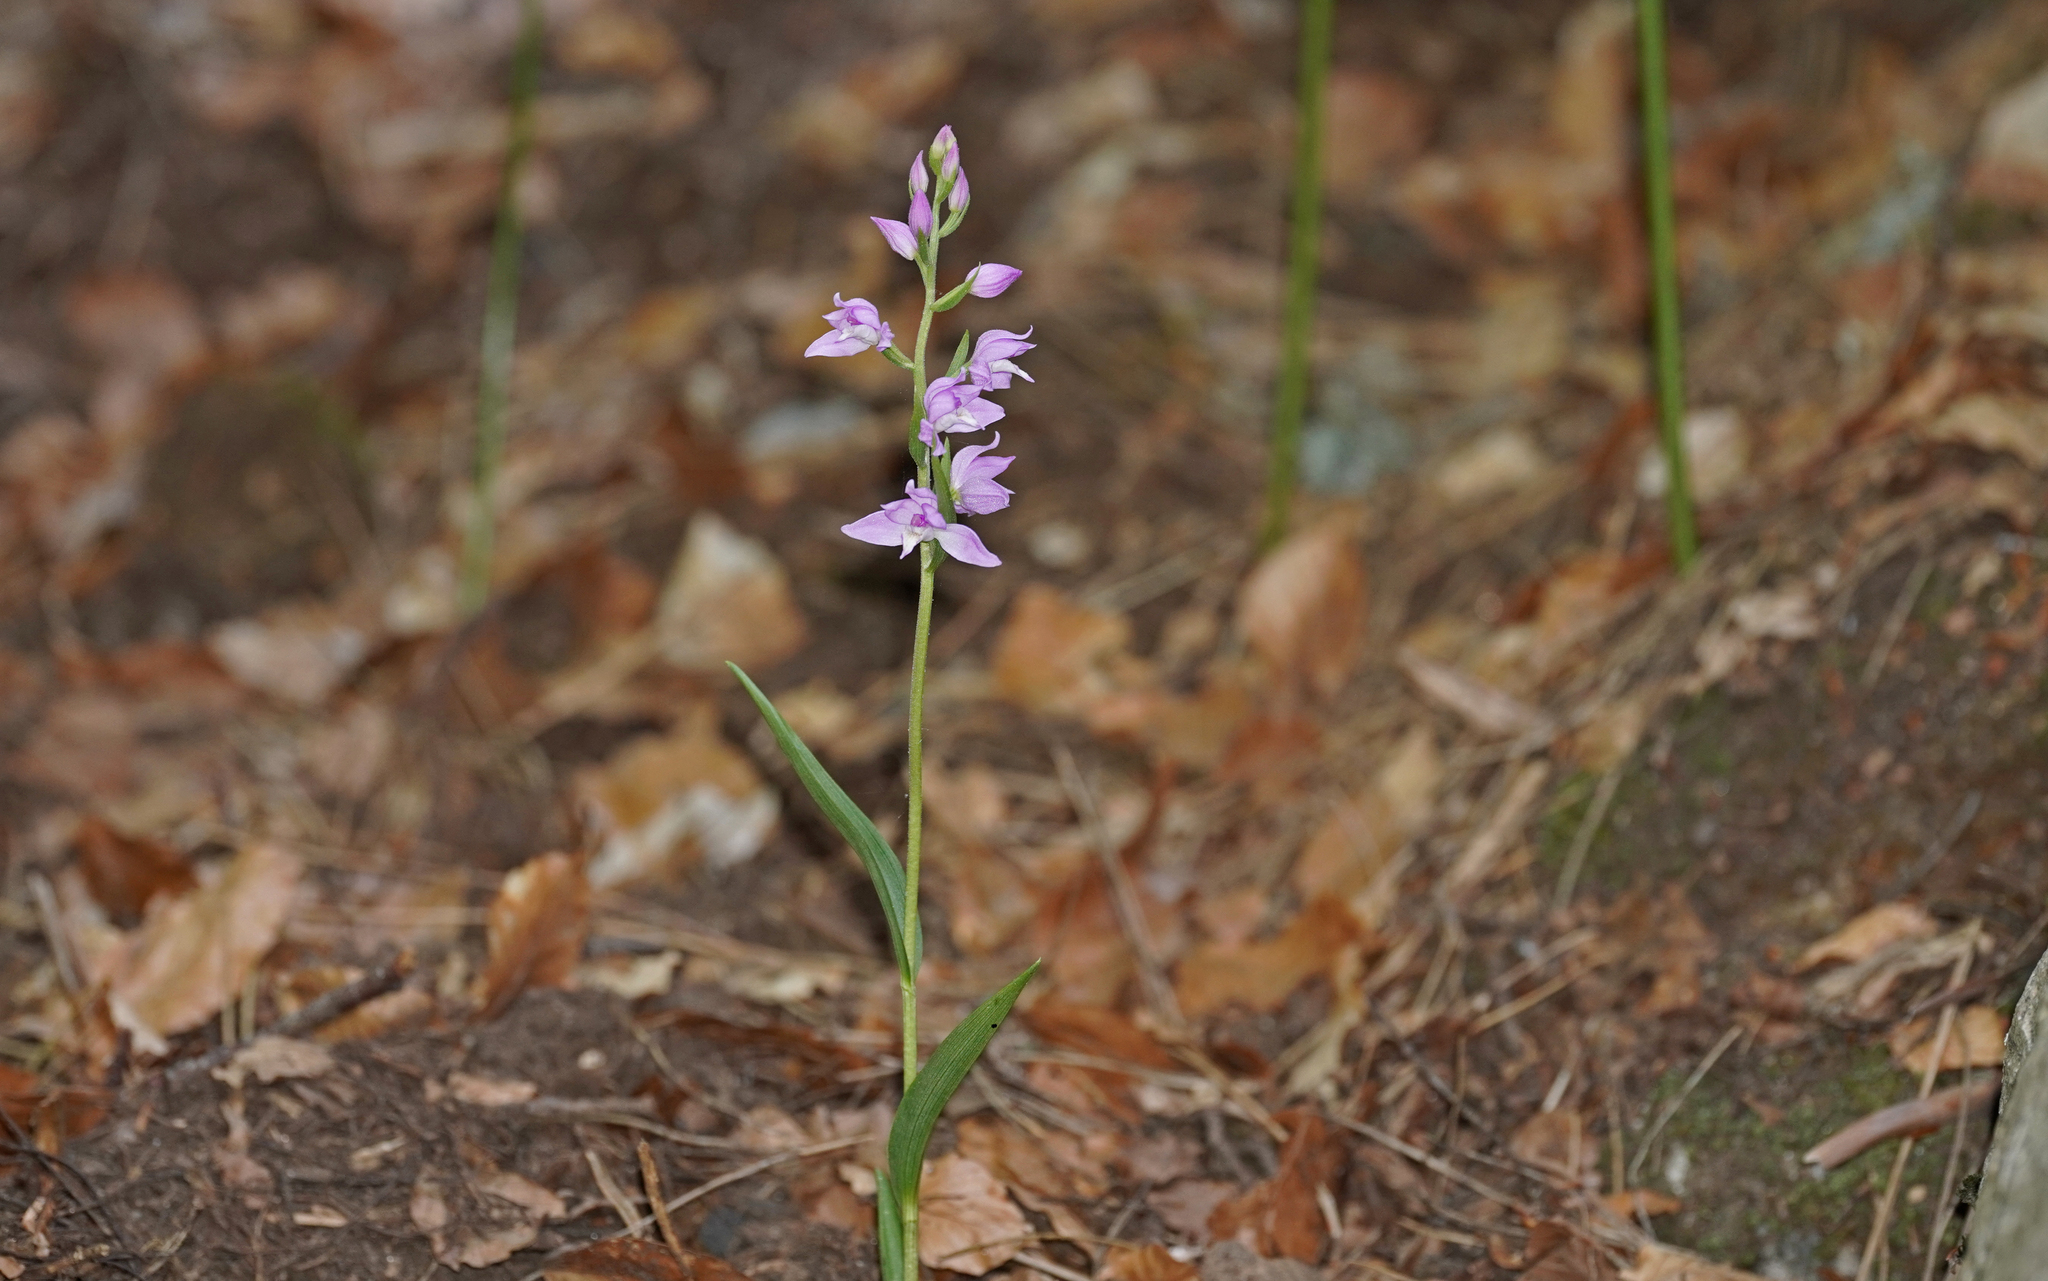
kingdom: Plantae
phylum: Tracheophyta
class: Liliopsida
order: Asparagales
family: Orchidaceae
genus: Cephalanthera
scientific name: Cephalanthera rubra
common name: Red helleborine
